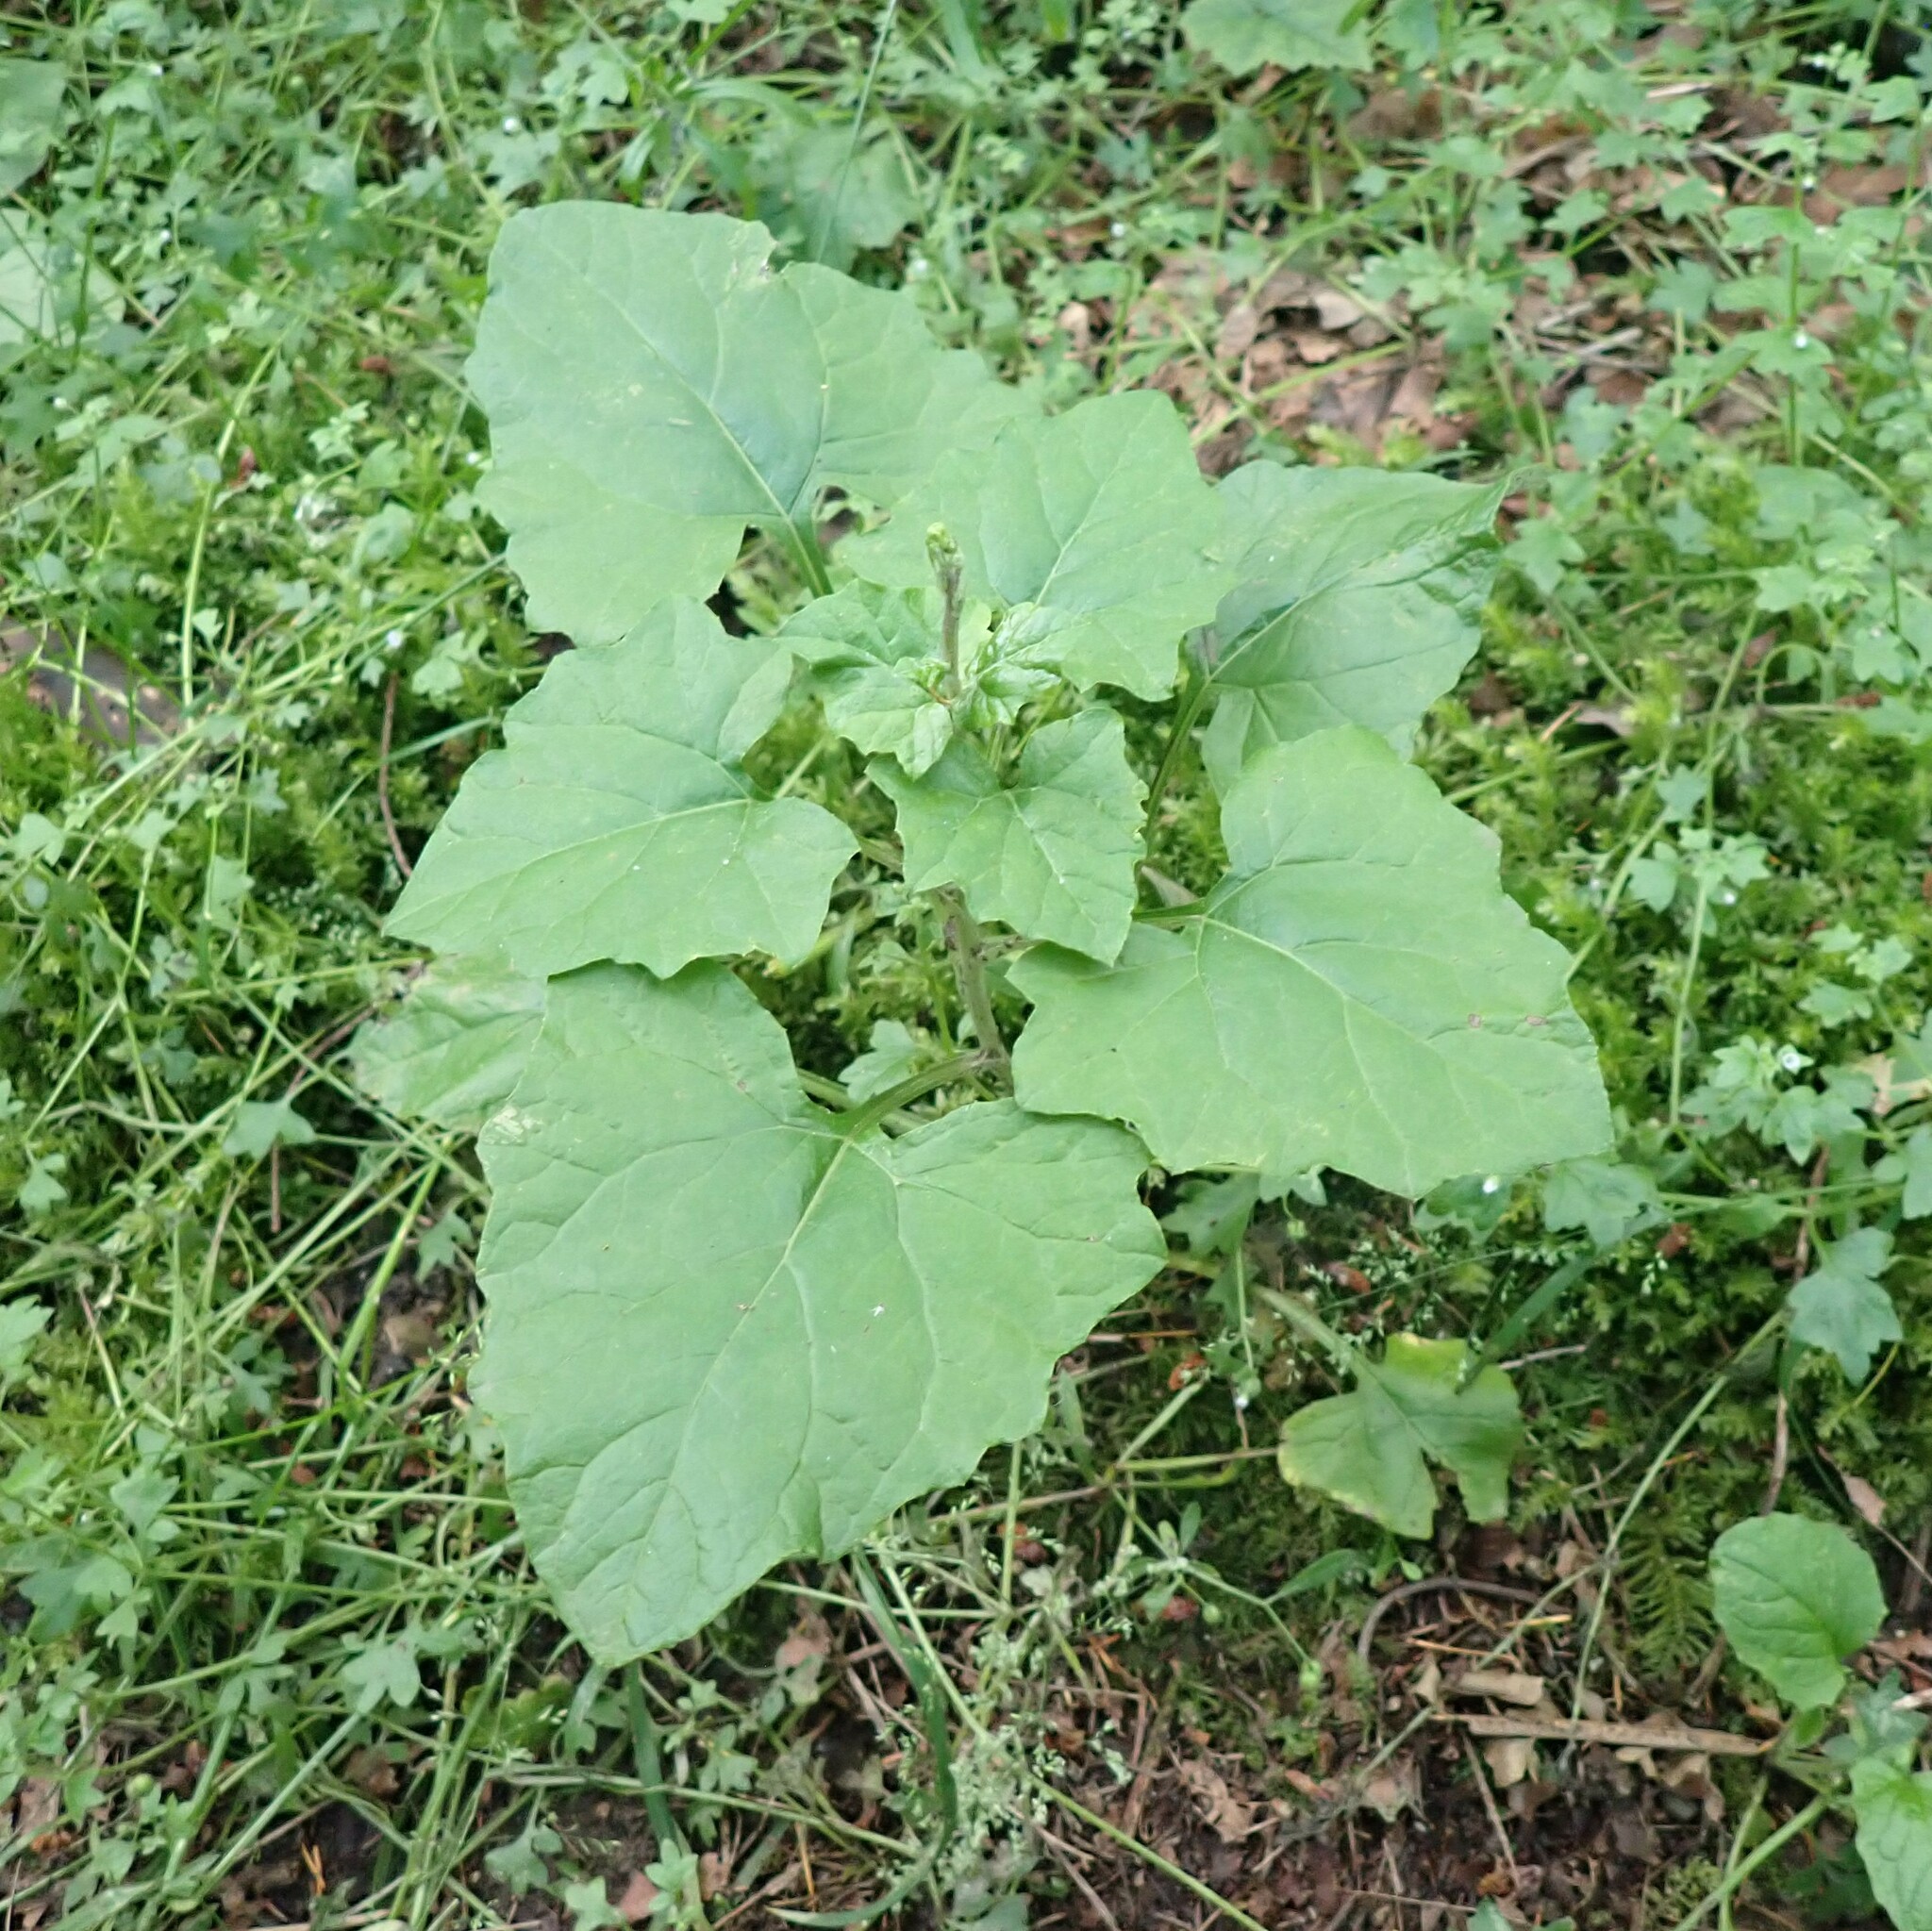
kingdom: Plantae
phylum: Tracheophyta
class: Magnoliopsida
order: Asterales
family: Asteraceae
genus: Adenocaulon
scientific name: Adenocaulon bicolor
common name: Trailplant
